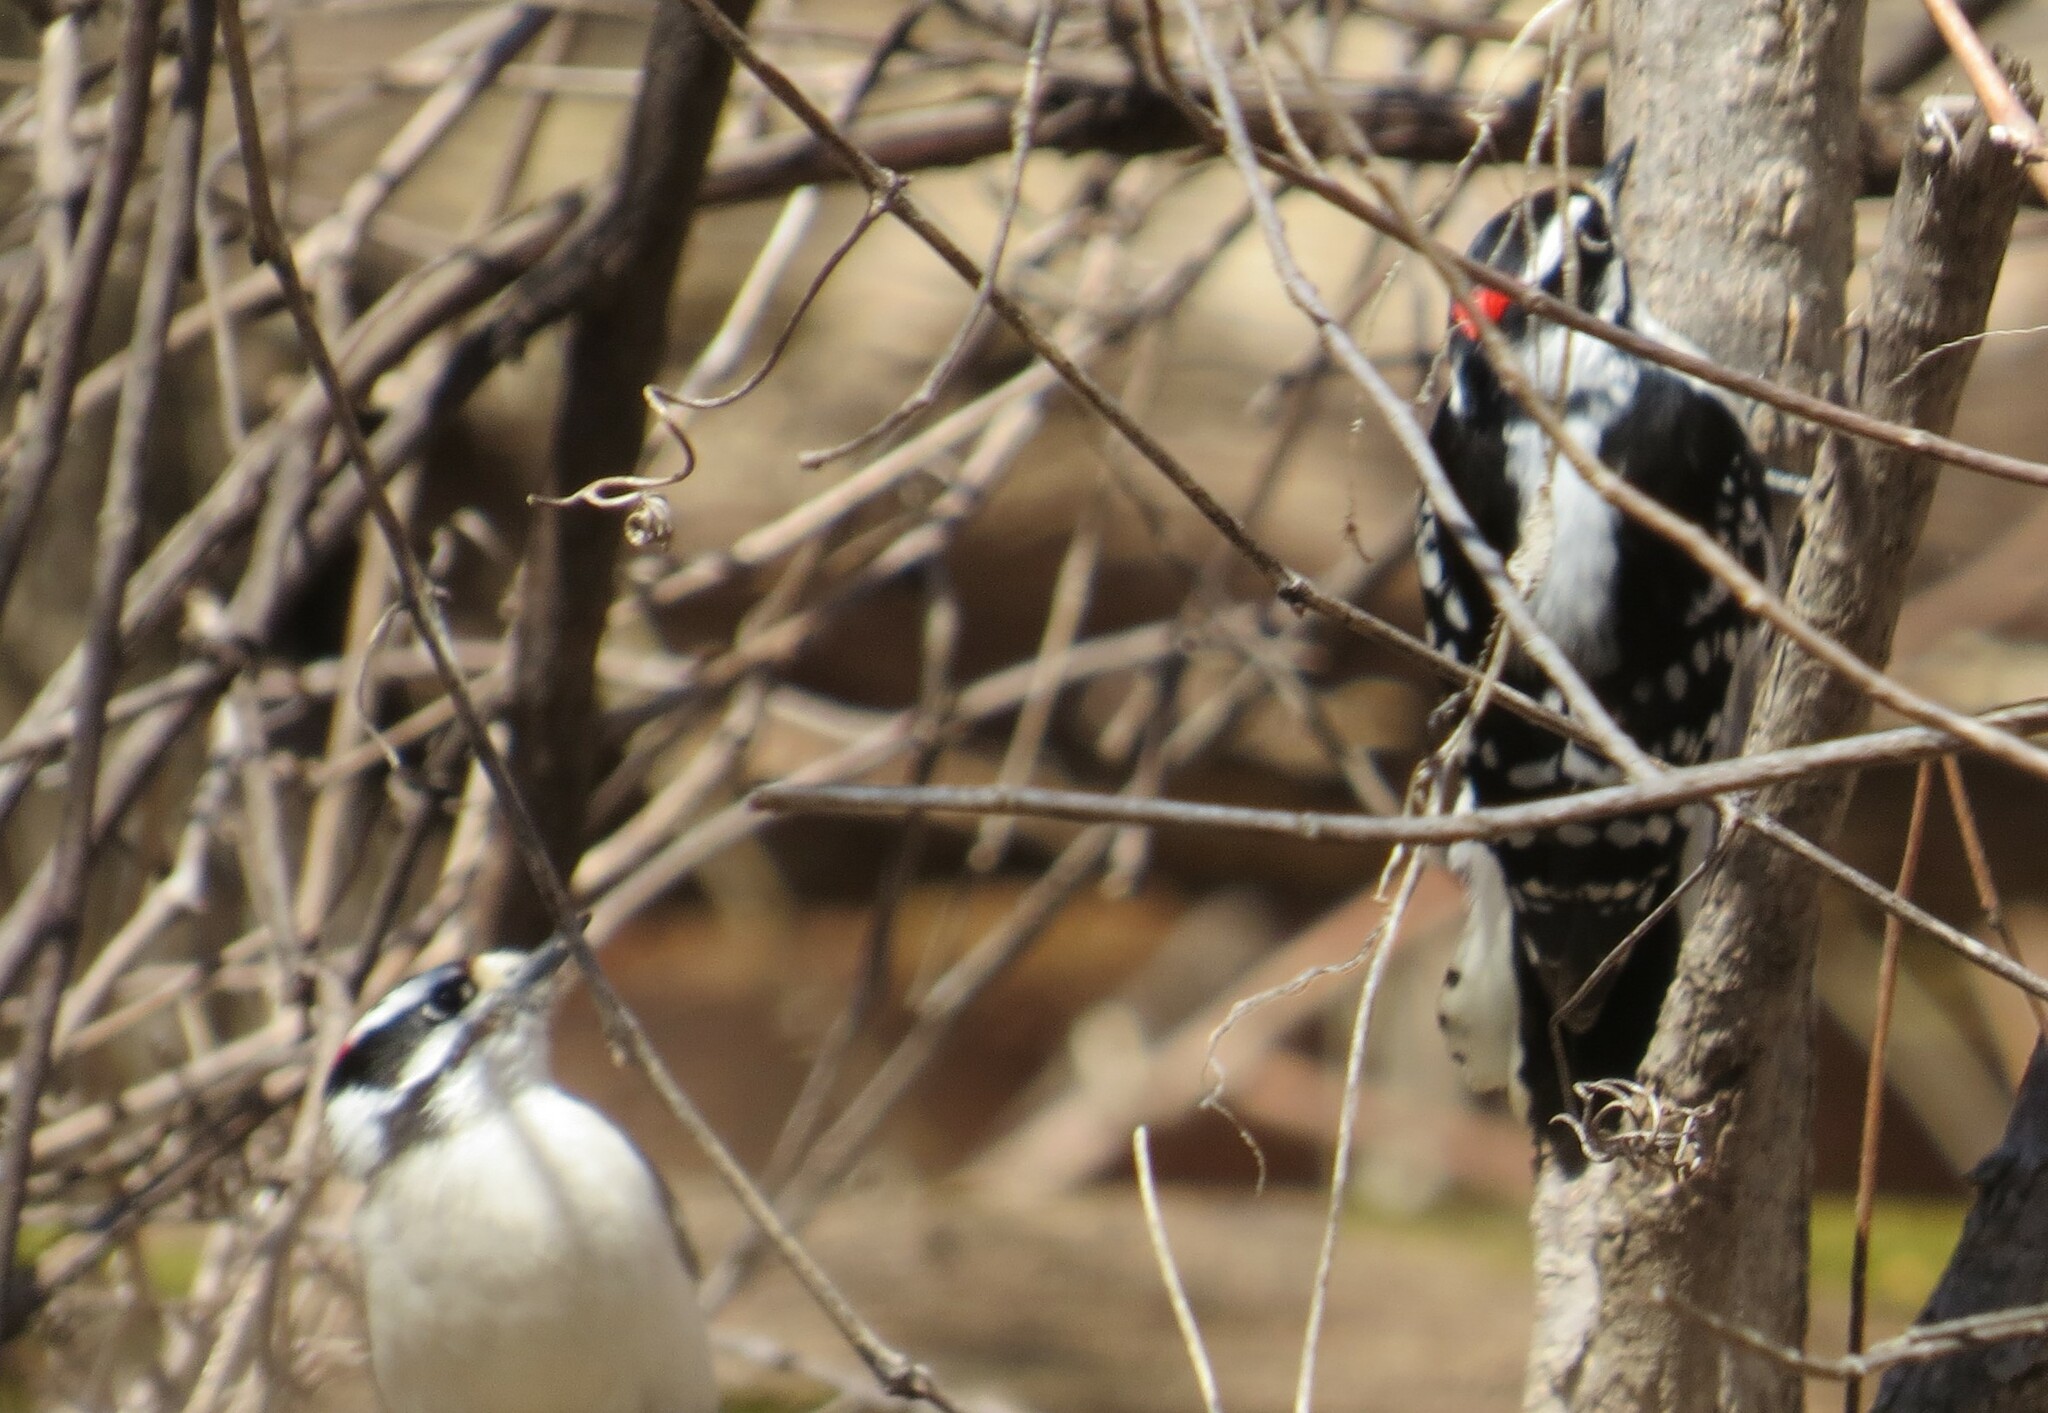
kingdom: Animalia
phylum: Chordata
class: Aves
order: Piciformes
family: Picidae
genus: Dryobates
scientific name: Dryobates pubescens
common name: Downy woodpecker
